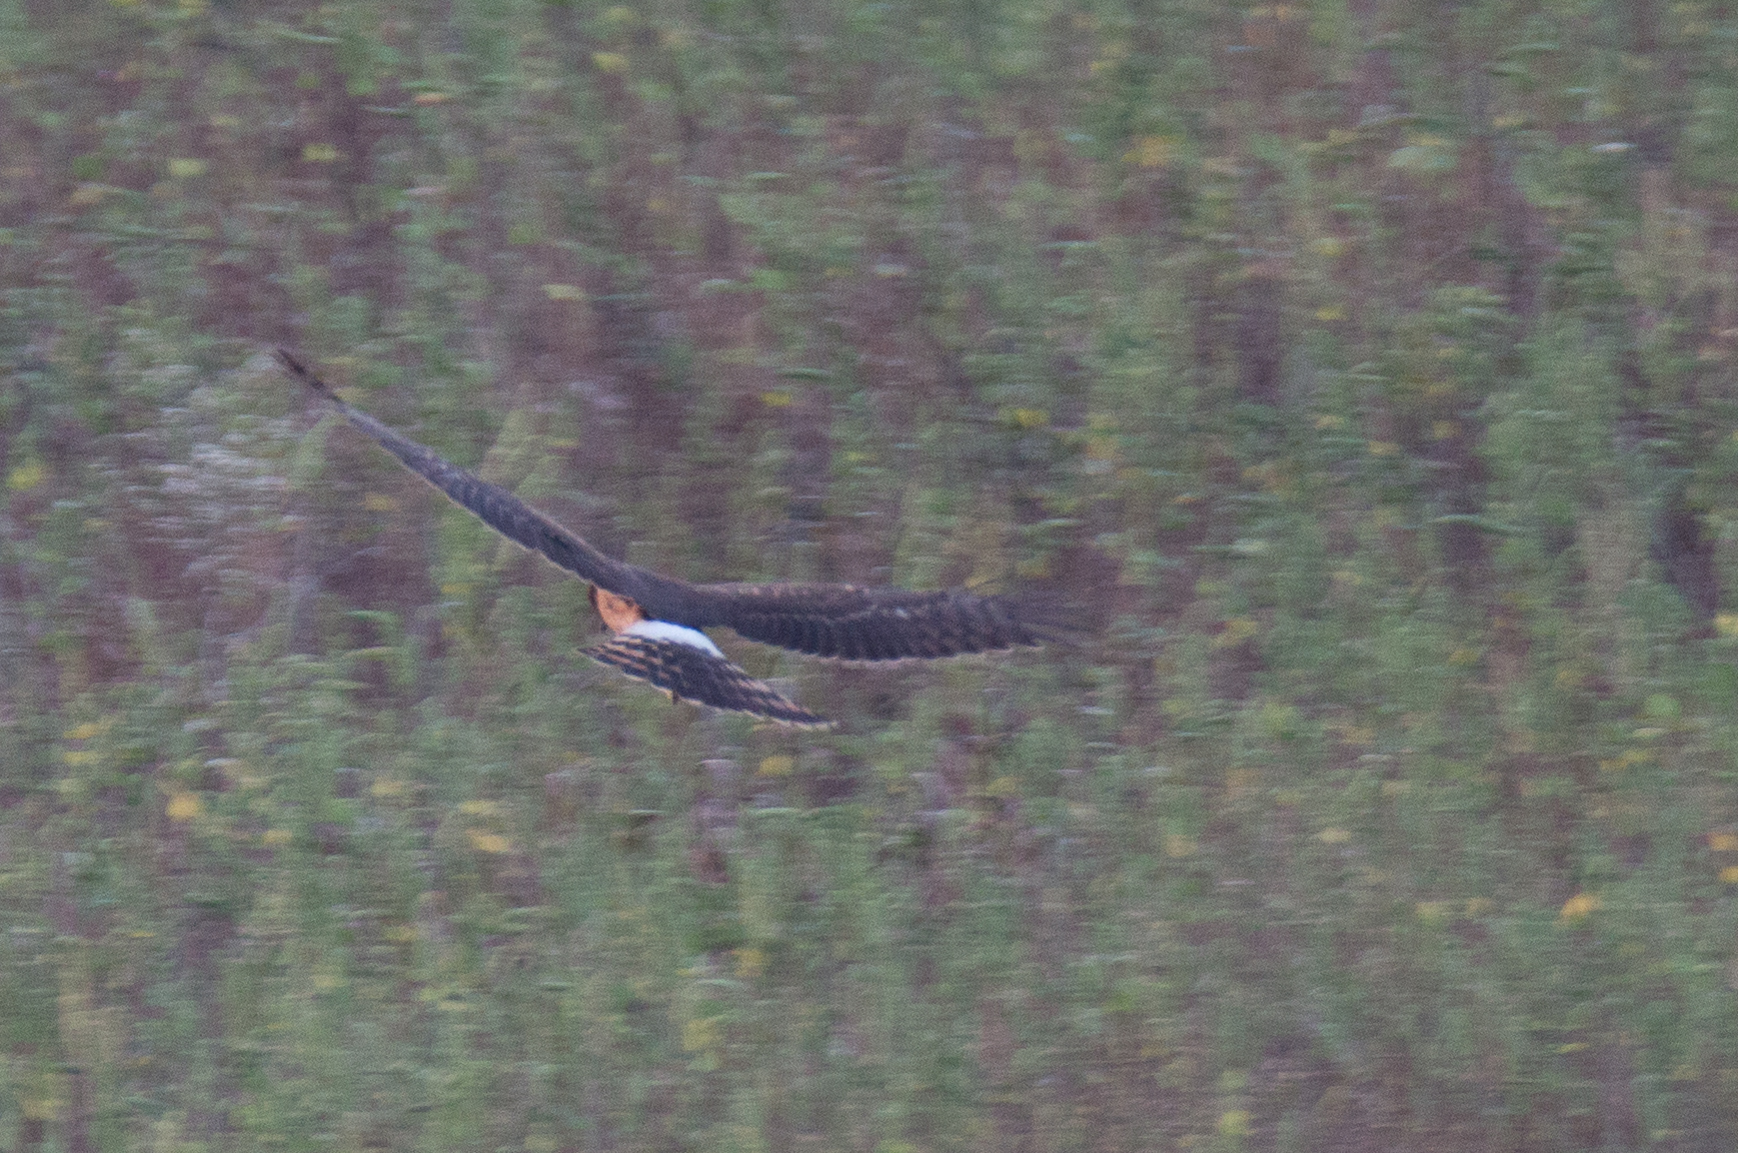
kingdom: Animalia
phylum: Chordata
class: Aves
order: Accipitriformes
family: Accipitridae
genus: Circus
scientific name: Circus cyaneus
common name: Hen harrier
